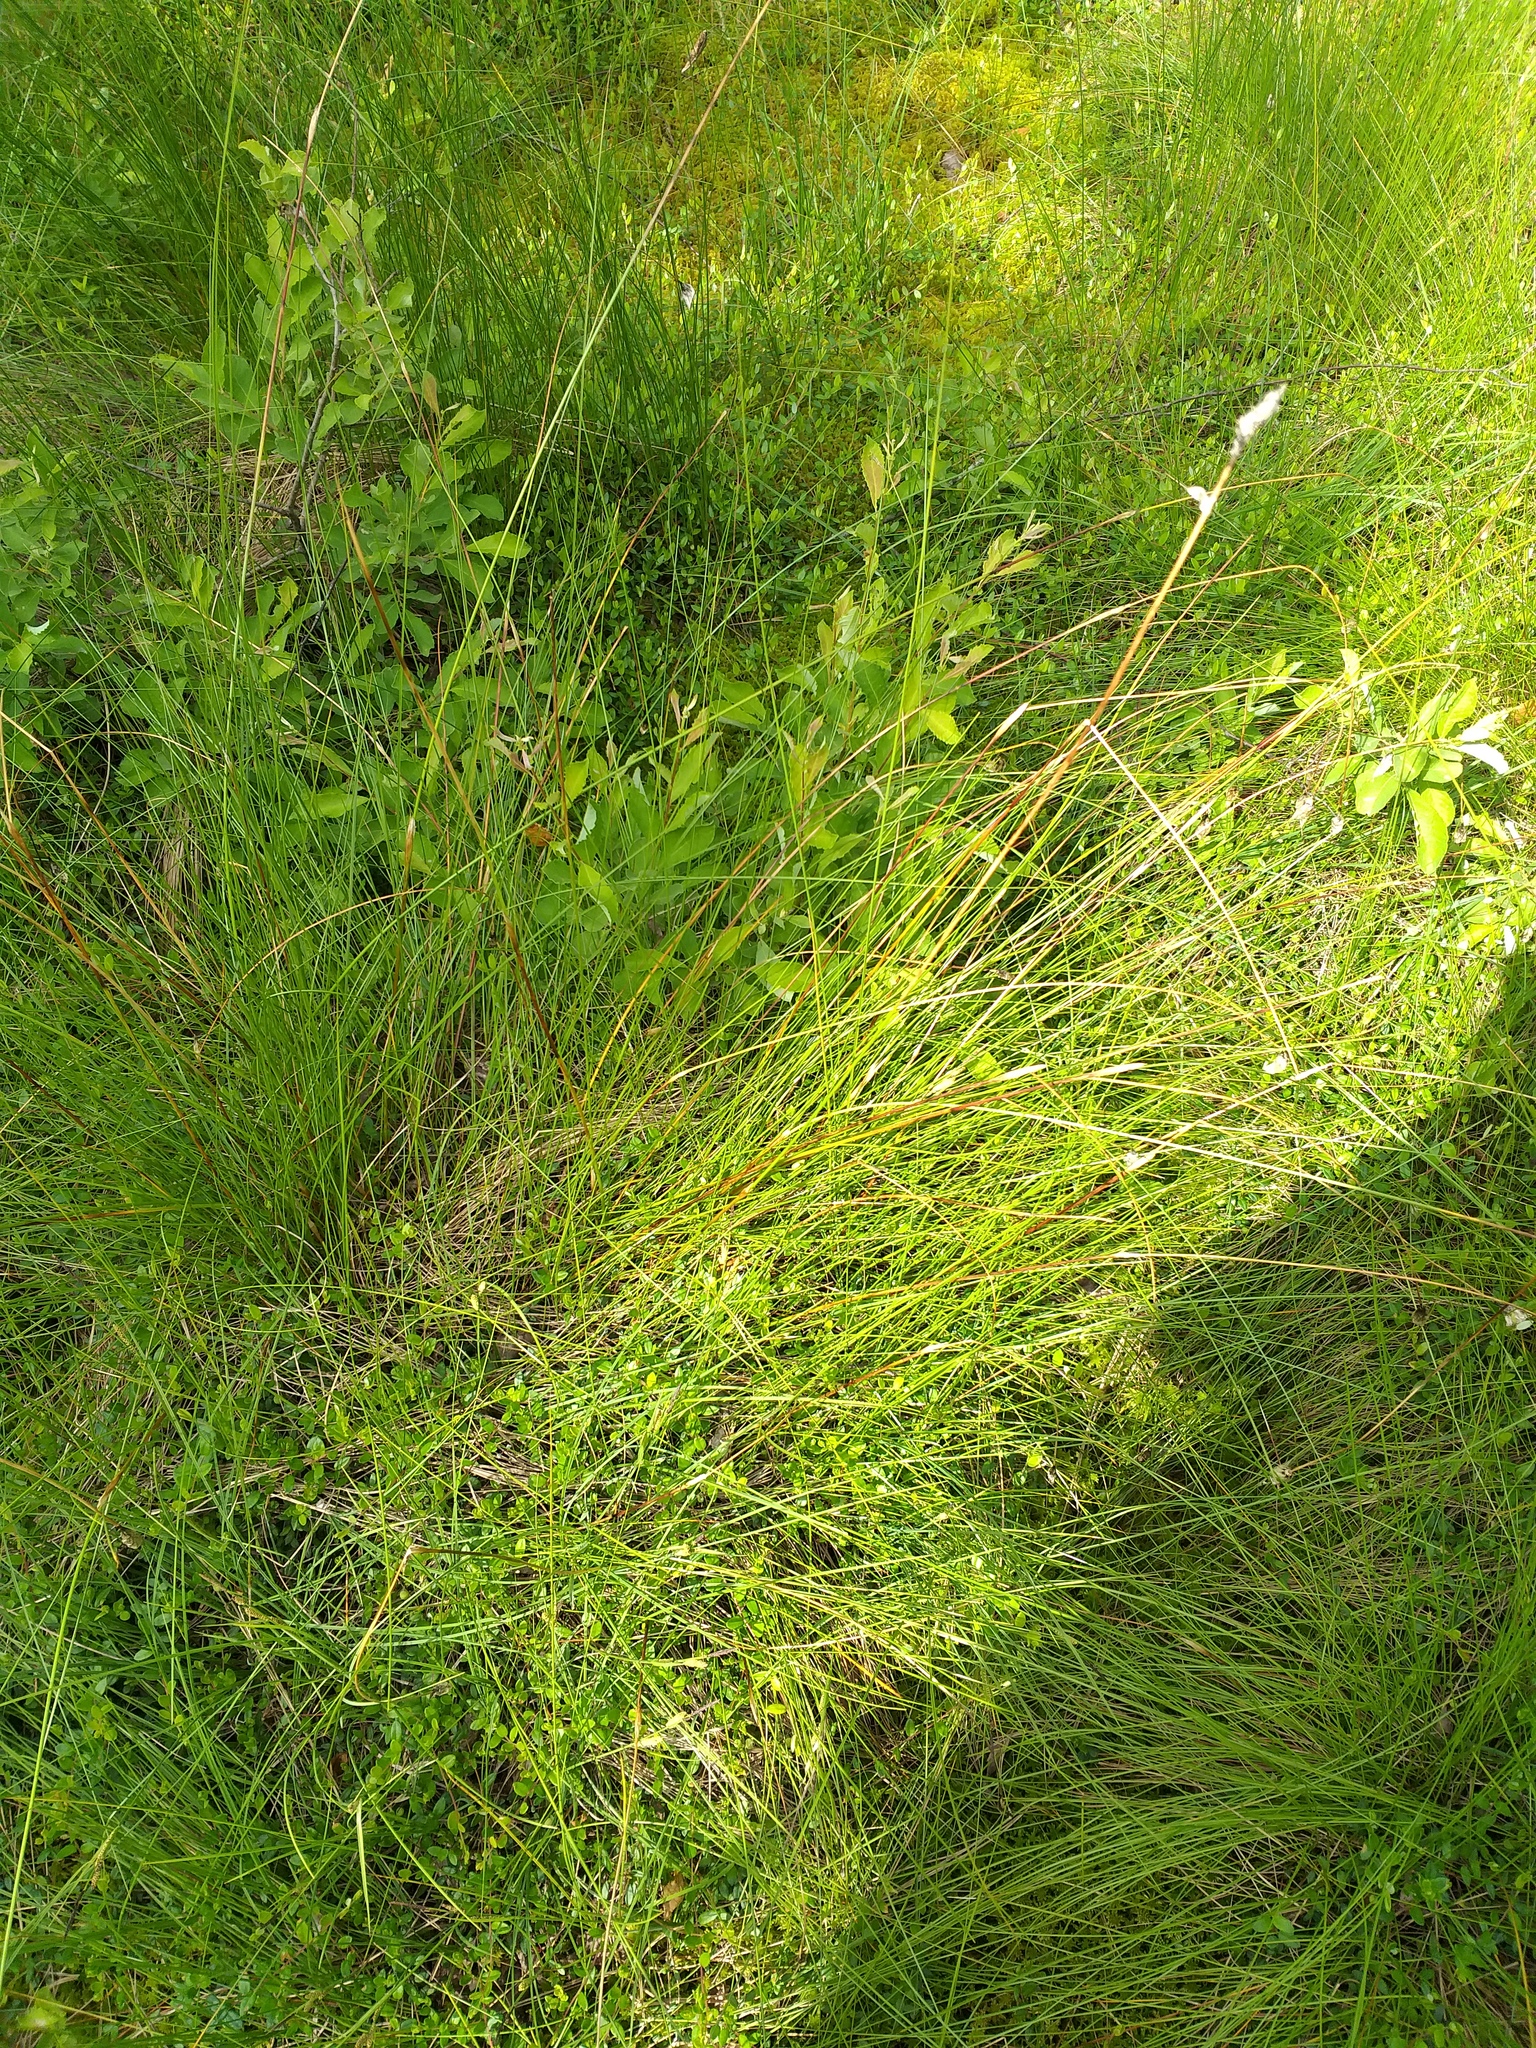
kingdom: Plantae
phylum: Tracheophyta
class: Liliopsida
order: Poales
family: Cyperaceae
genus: Eriophorum
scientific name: Eriophorum vaginatum
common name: Hare's-tail cottongrass
